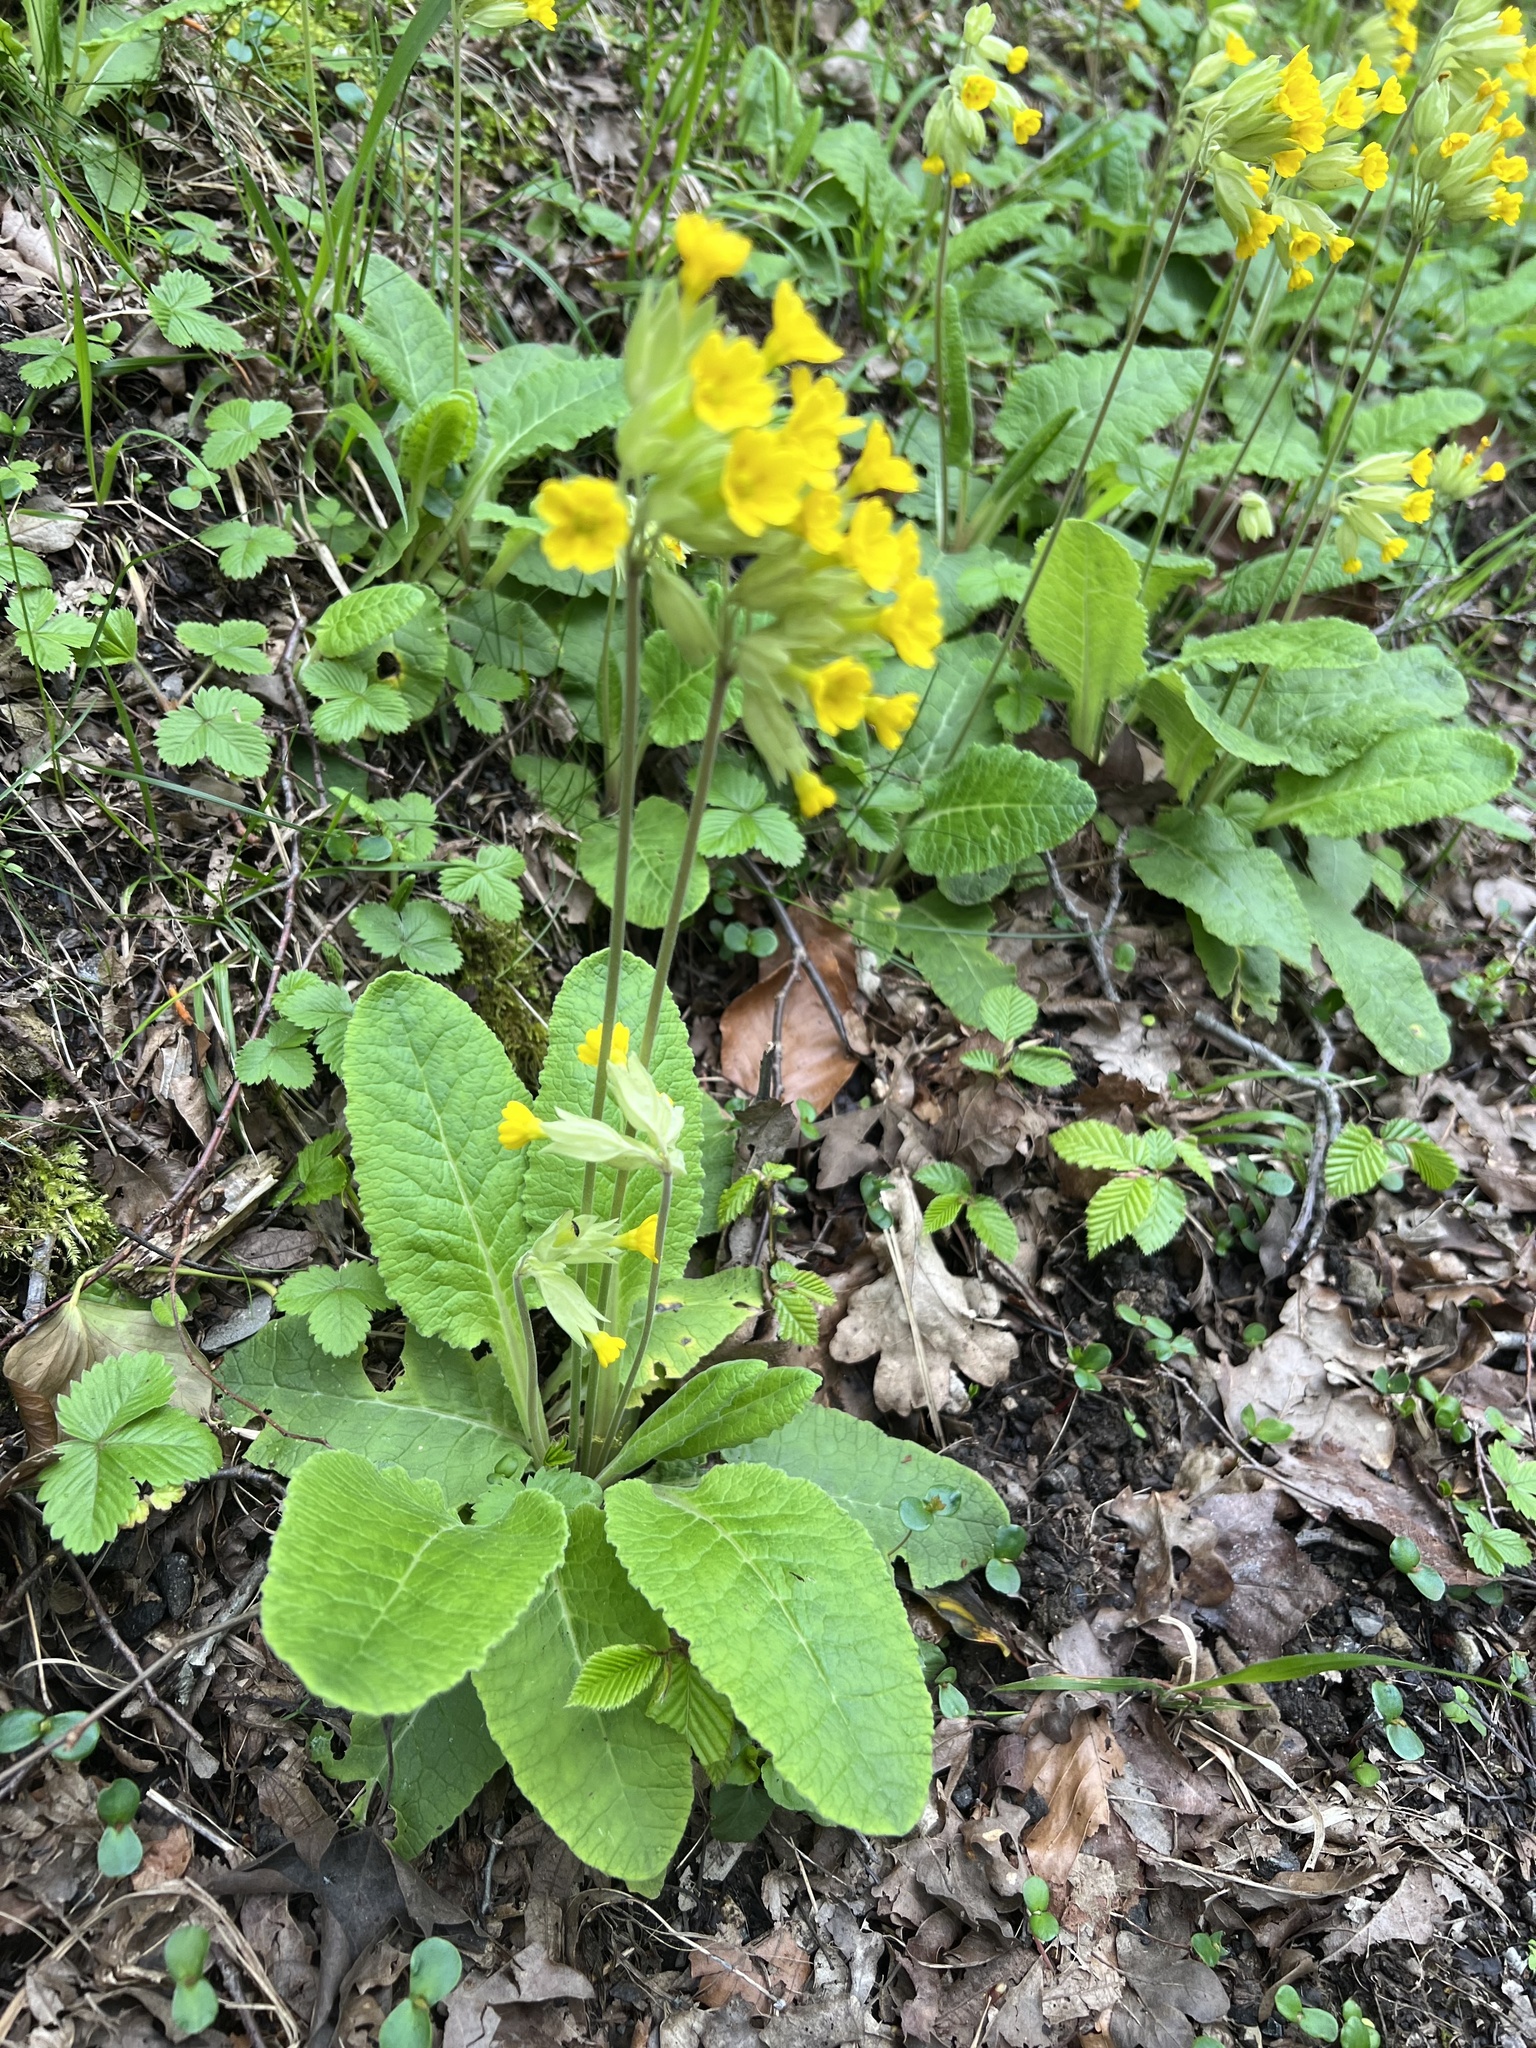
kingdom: Plantae
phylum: Tracheophyta
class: Magnoliopsida
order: Ericales
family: Primulaceae
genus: Primula
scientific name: Primula veris
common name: Cowslip
